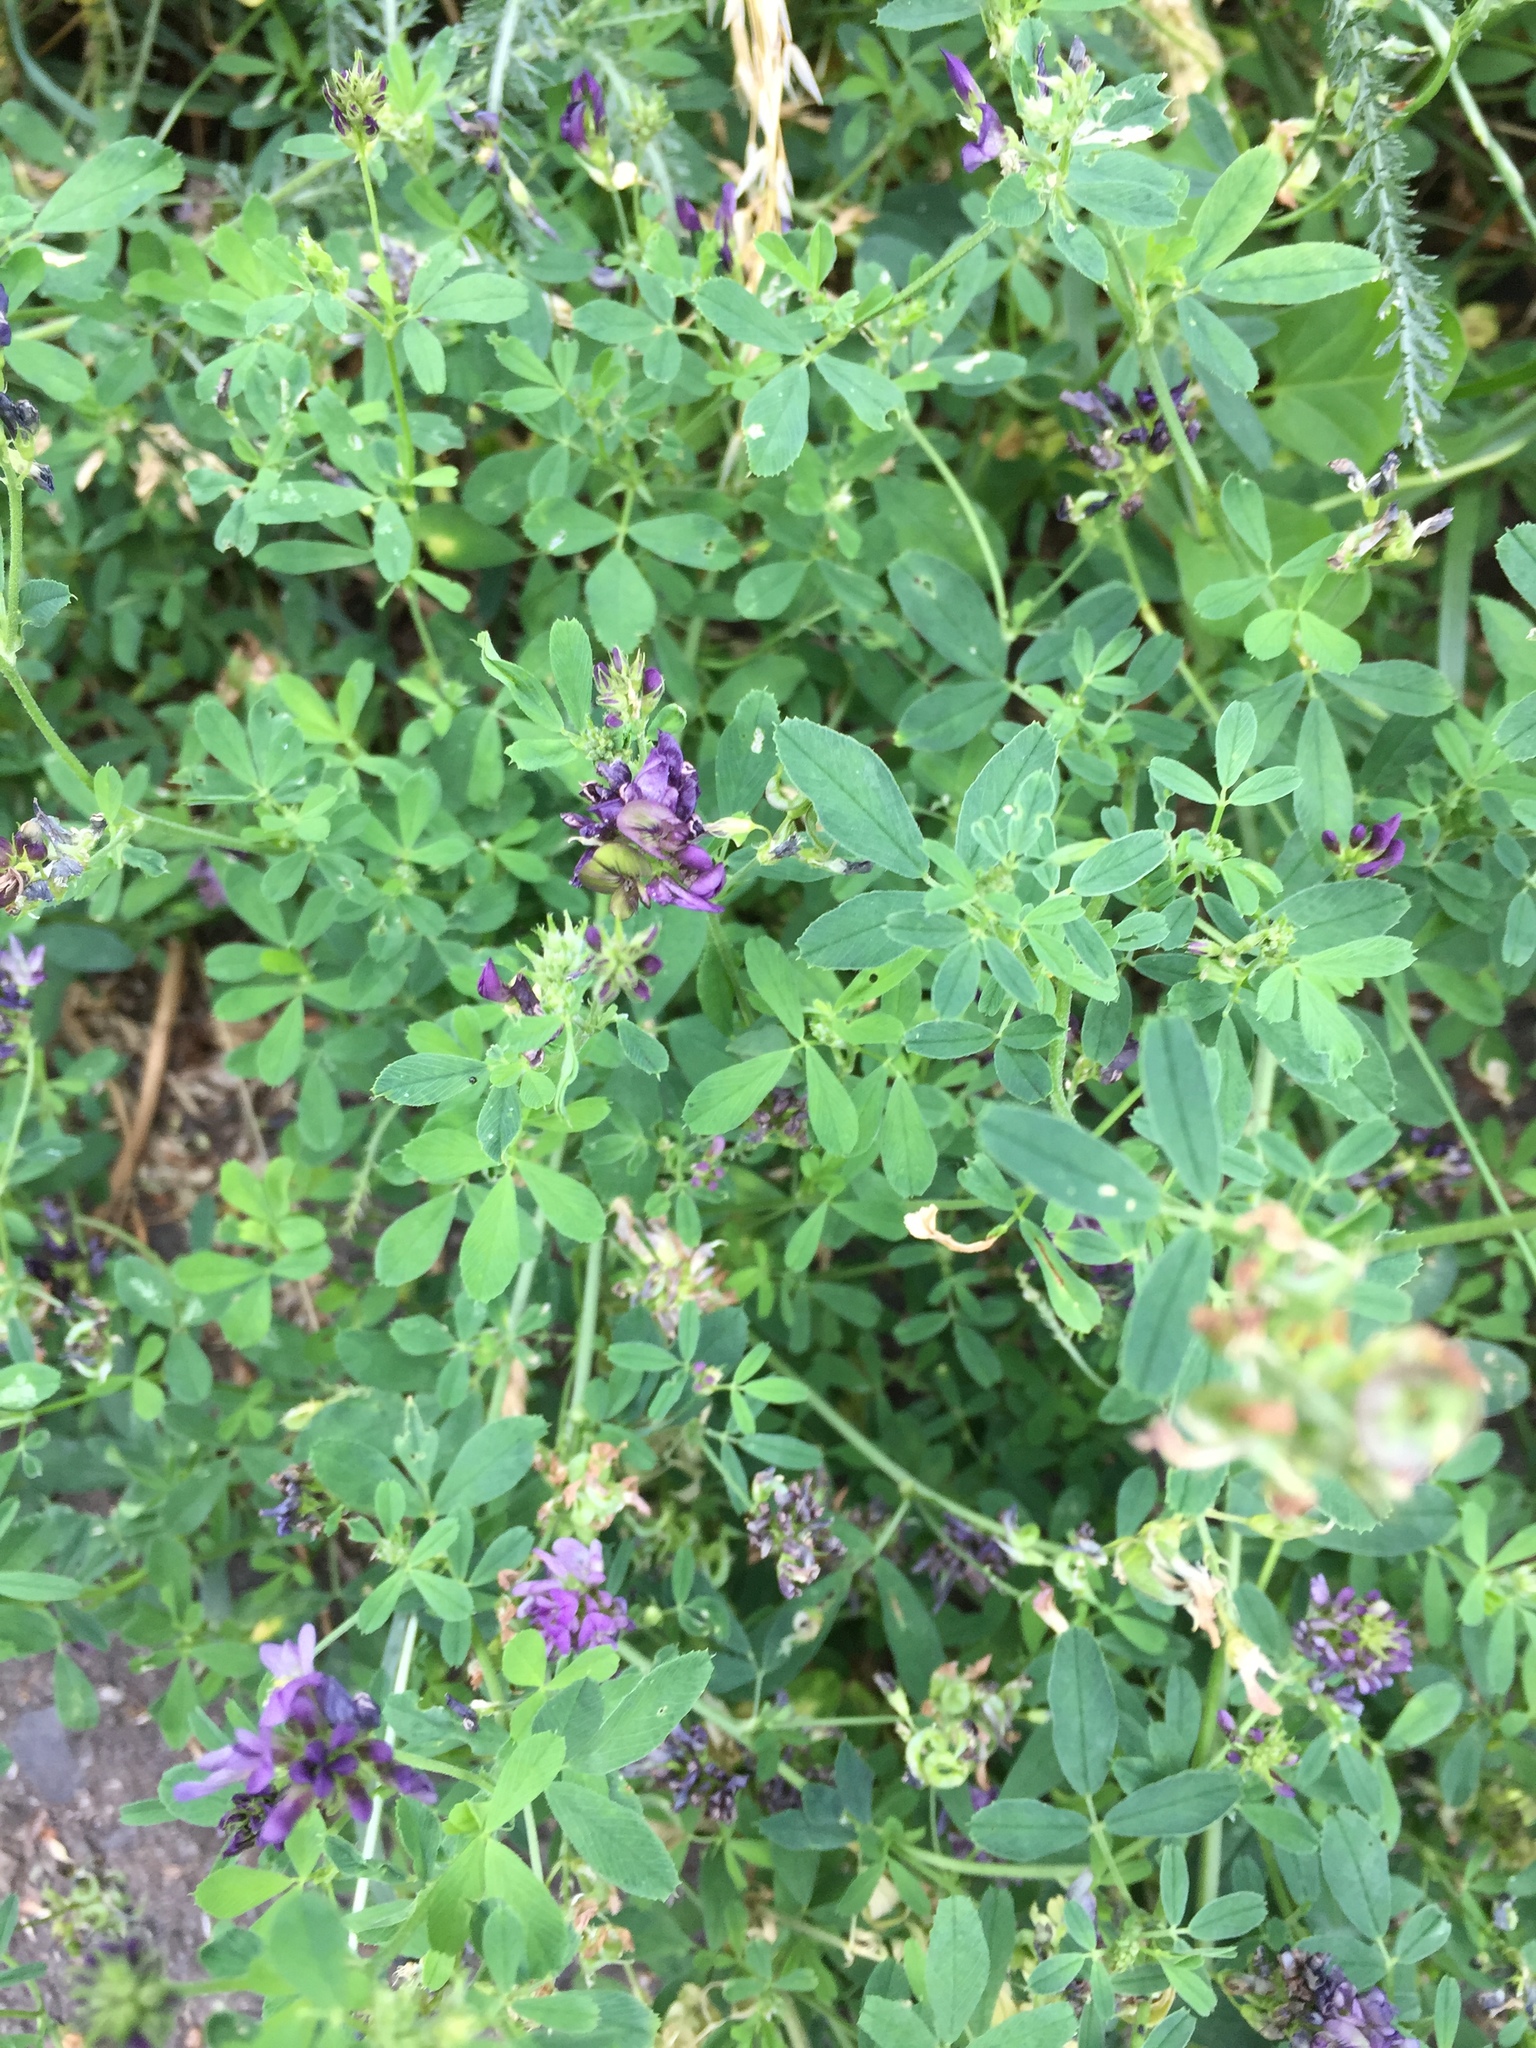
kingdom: Plantae
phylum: Tracheophyta
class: Magnoliopsida
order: Fabales
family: Fabaceae
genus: Medicago
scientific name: Medicago sativa
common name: Alfalfa
